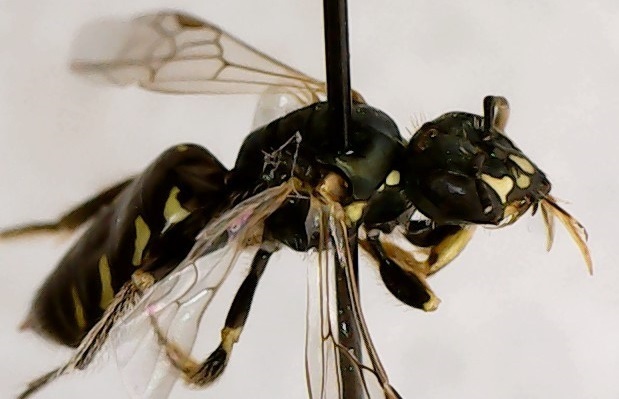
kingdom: Animalia
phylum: Arthropoda
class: Insecta
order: Hymenoptera
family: Andrenidae
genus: Perdita
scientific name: Perdita octomaculata
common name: Eight-spotted miner bee
